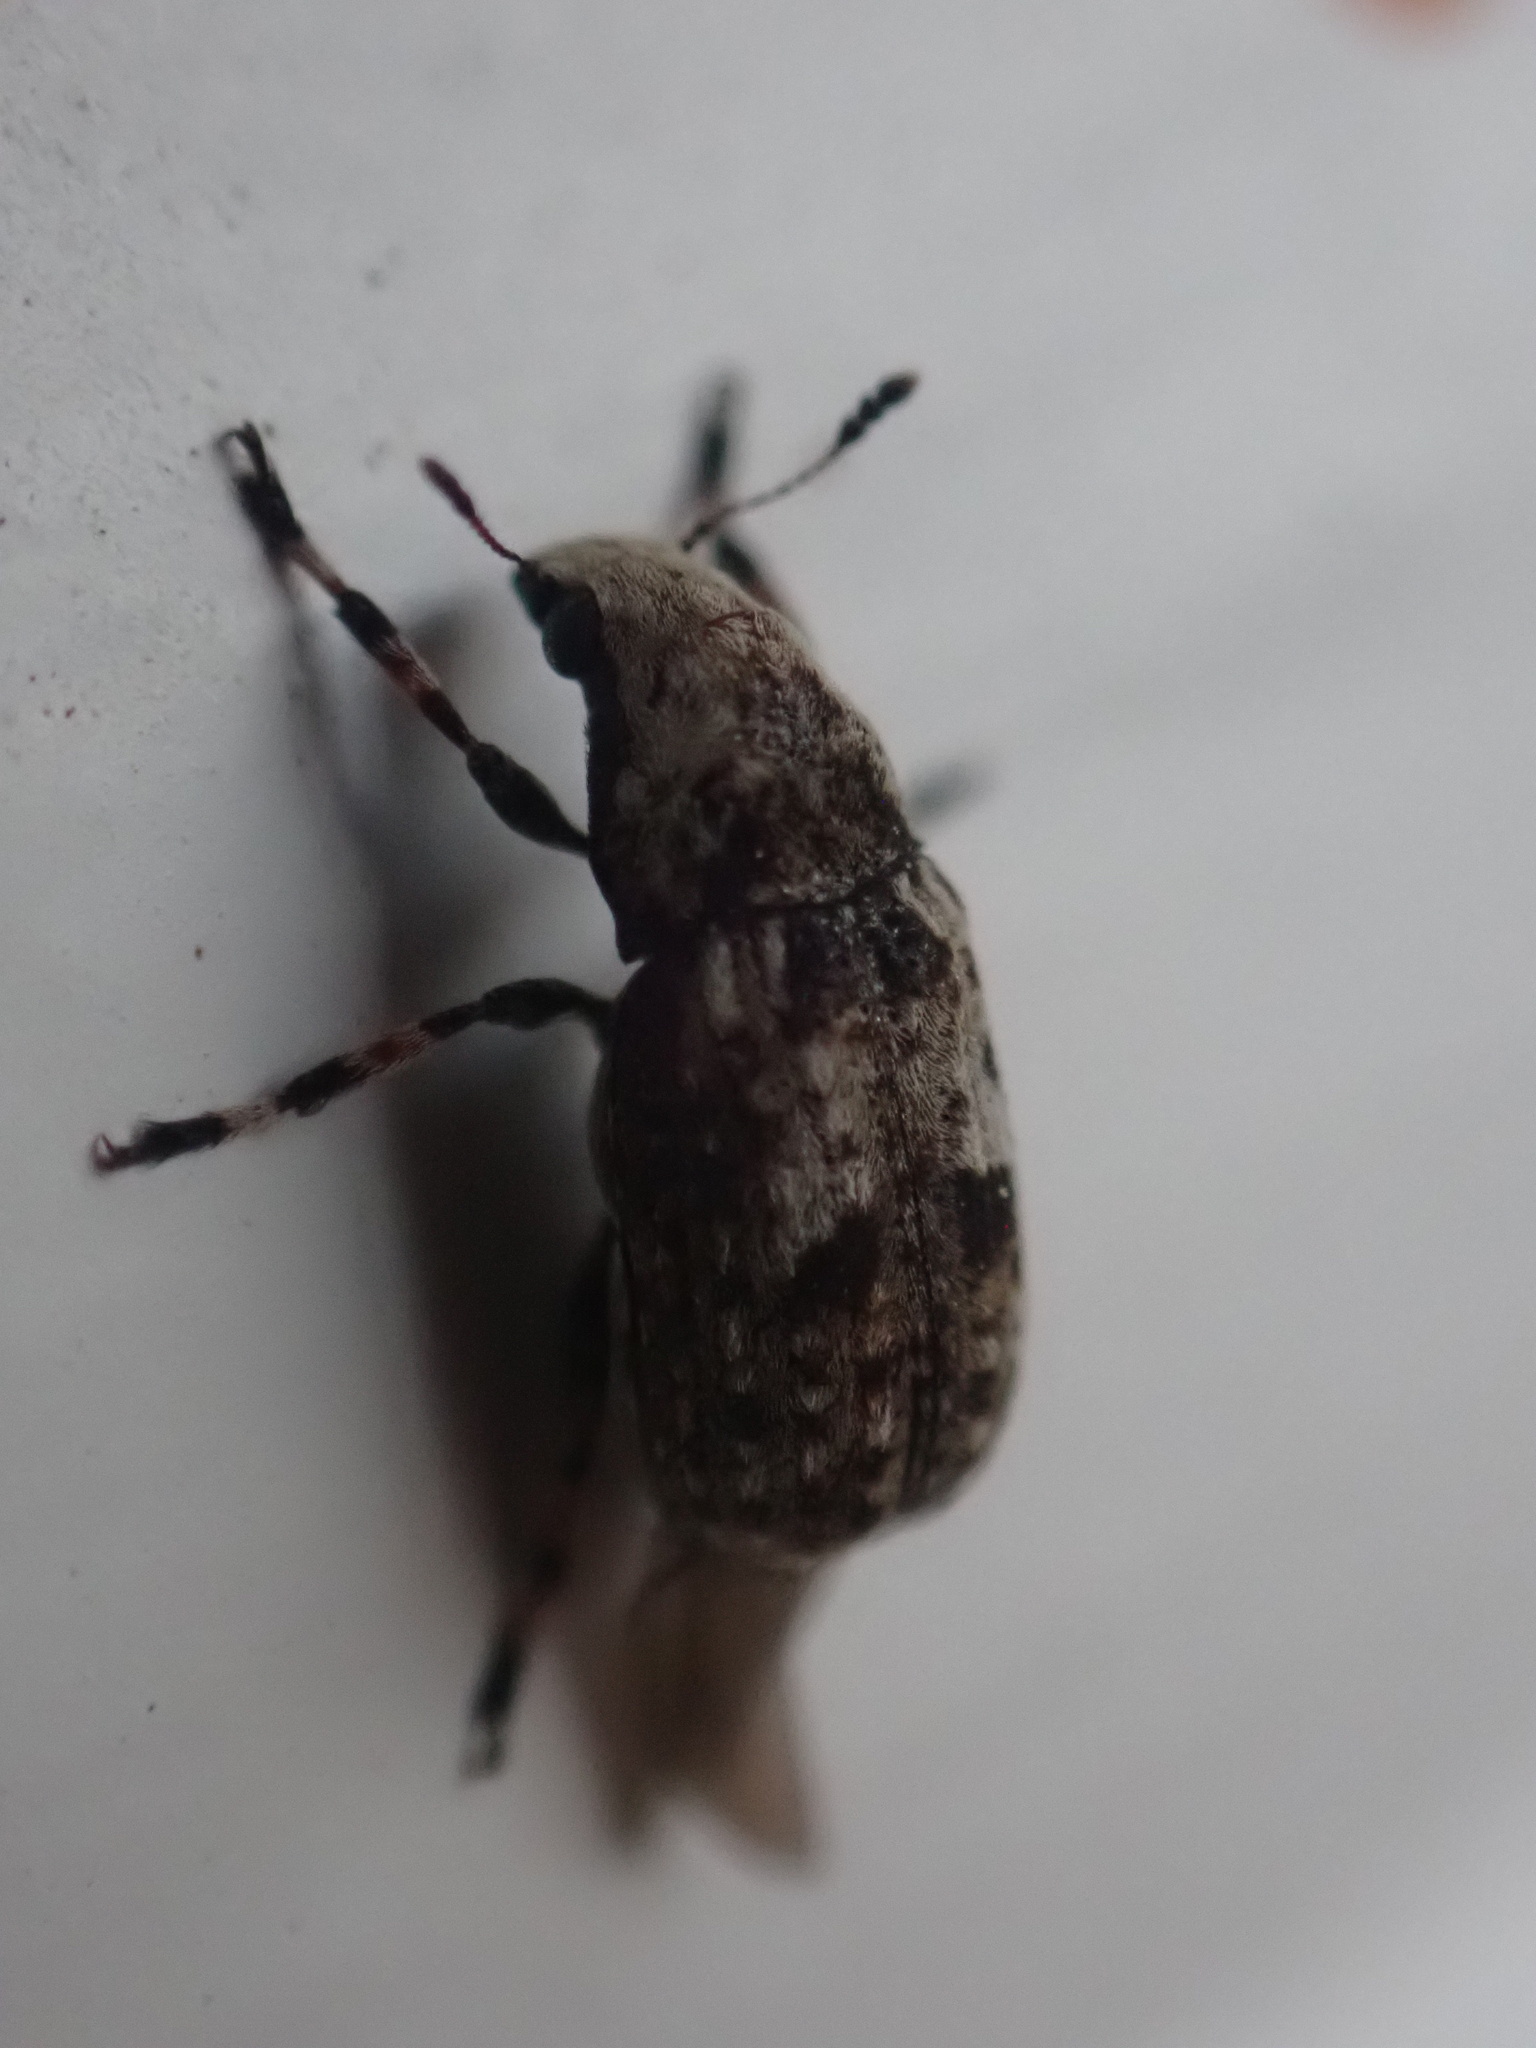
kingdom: Animalia
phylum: Arthropoda
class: Insecta
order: Coleoptera
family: Anthribidae
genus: Euparius
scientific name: Euparius marmoreus
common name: Marbled fungus weevil
